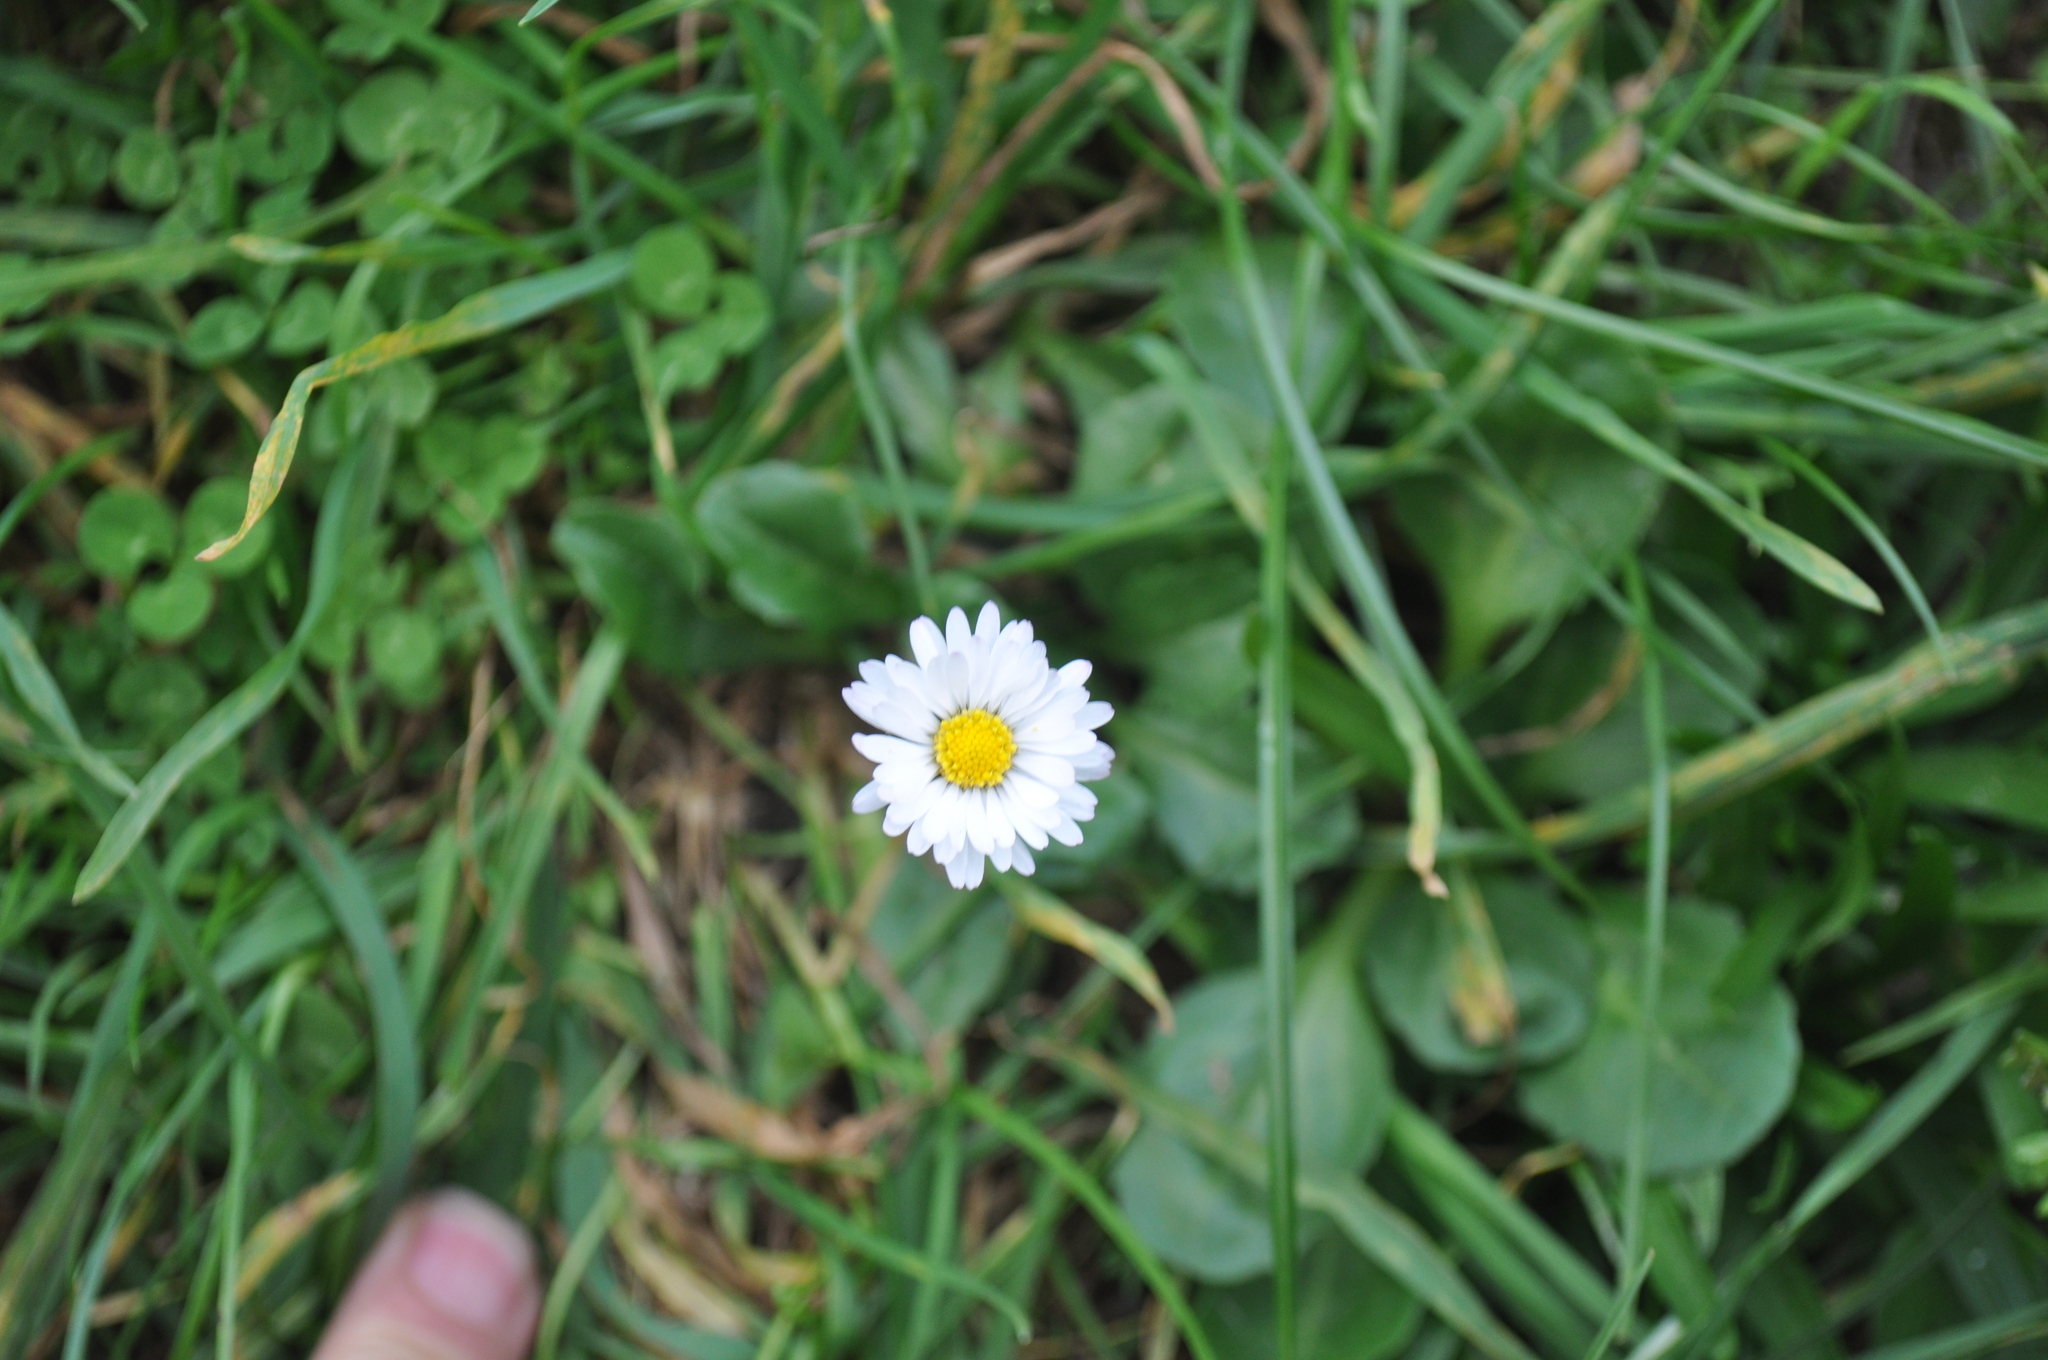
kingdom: Plantae
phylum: Tracheophyta
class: Magnoliopsida
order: Asterales
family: Asteraceae
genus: Bellis
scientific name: Bellis perennis
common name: Lawndaisy
